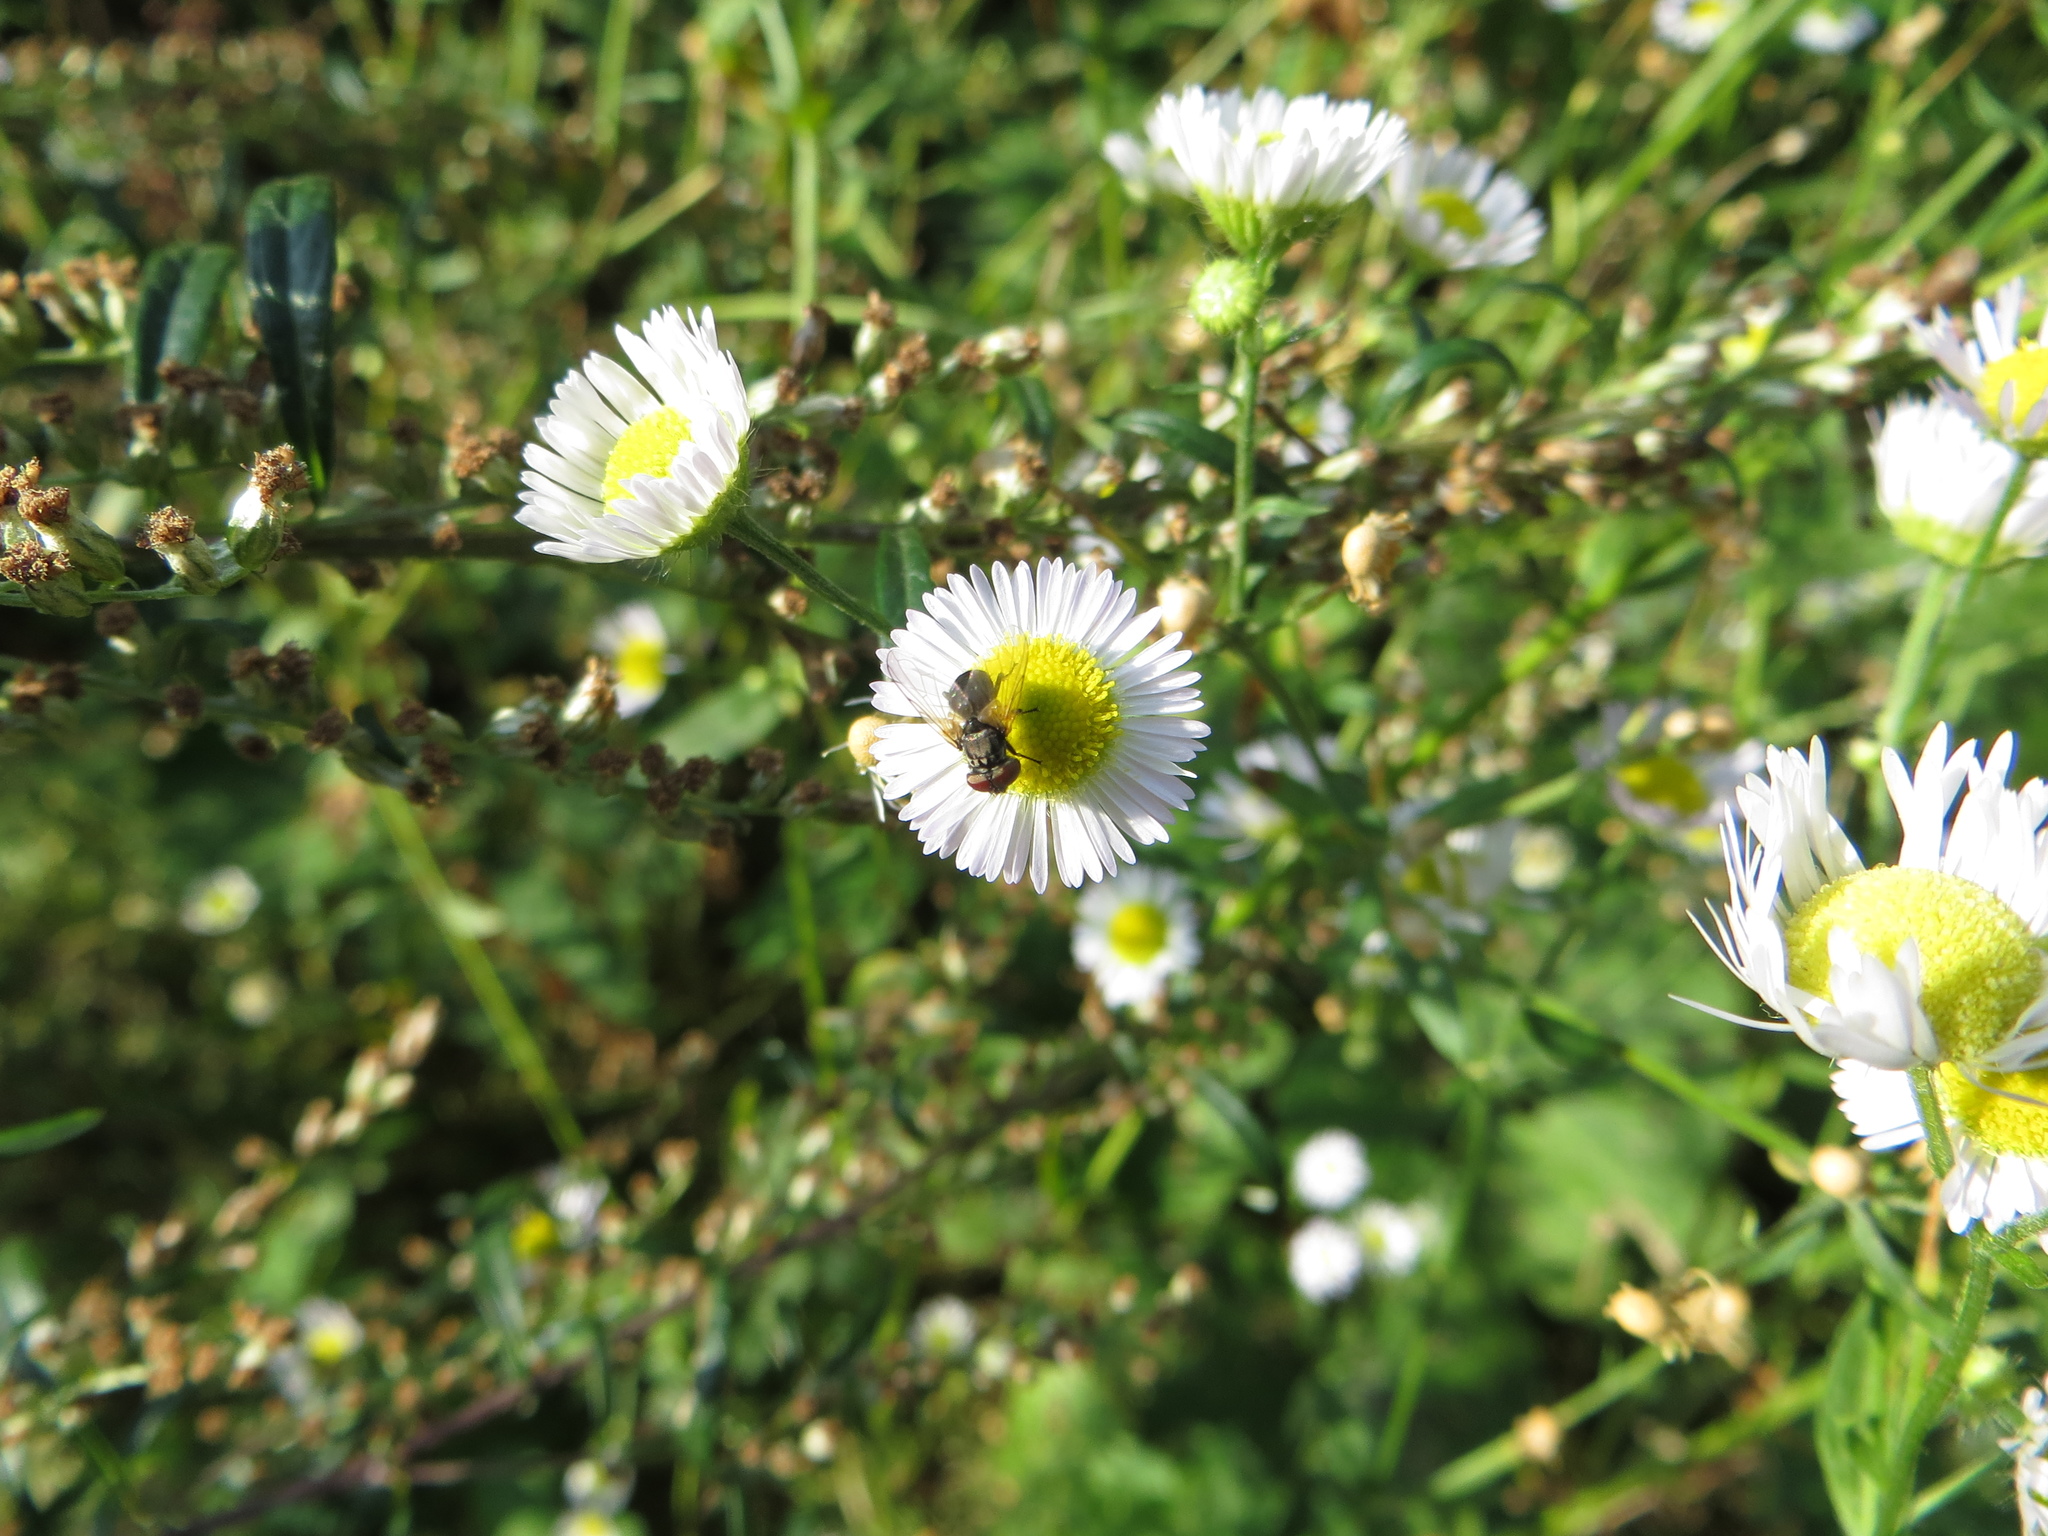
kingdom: Animalia
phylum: Arthropoda
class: Insecta
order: Diptera
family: Tachinidae
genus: Phasia
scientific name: Phasia aurigera
